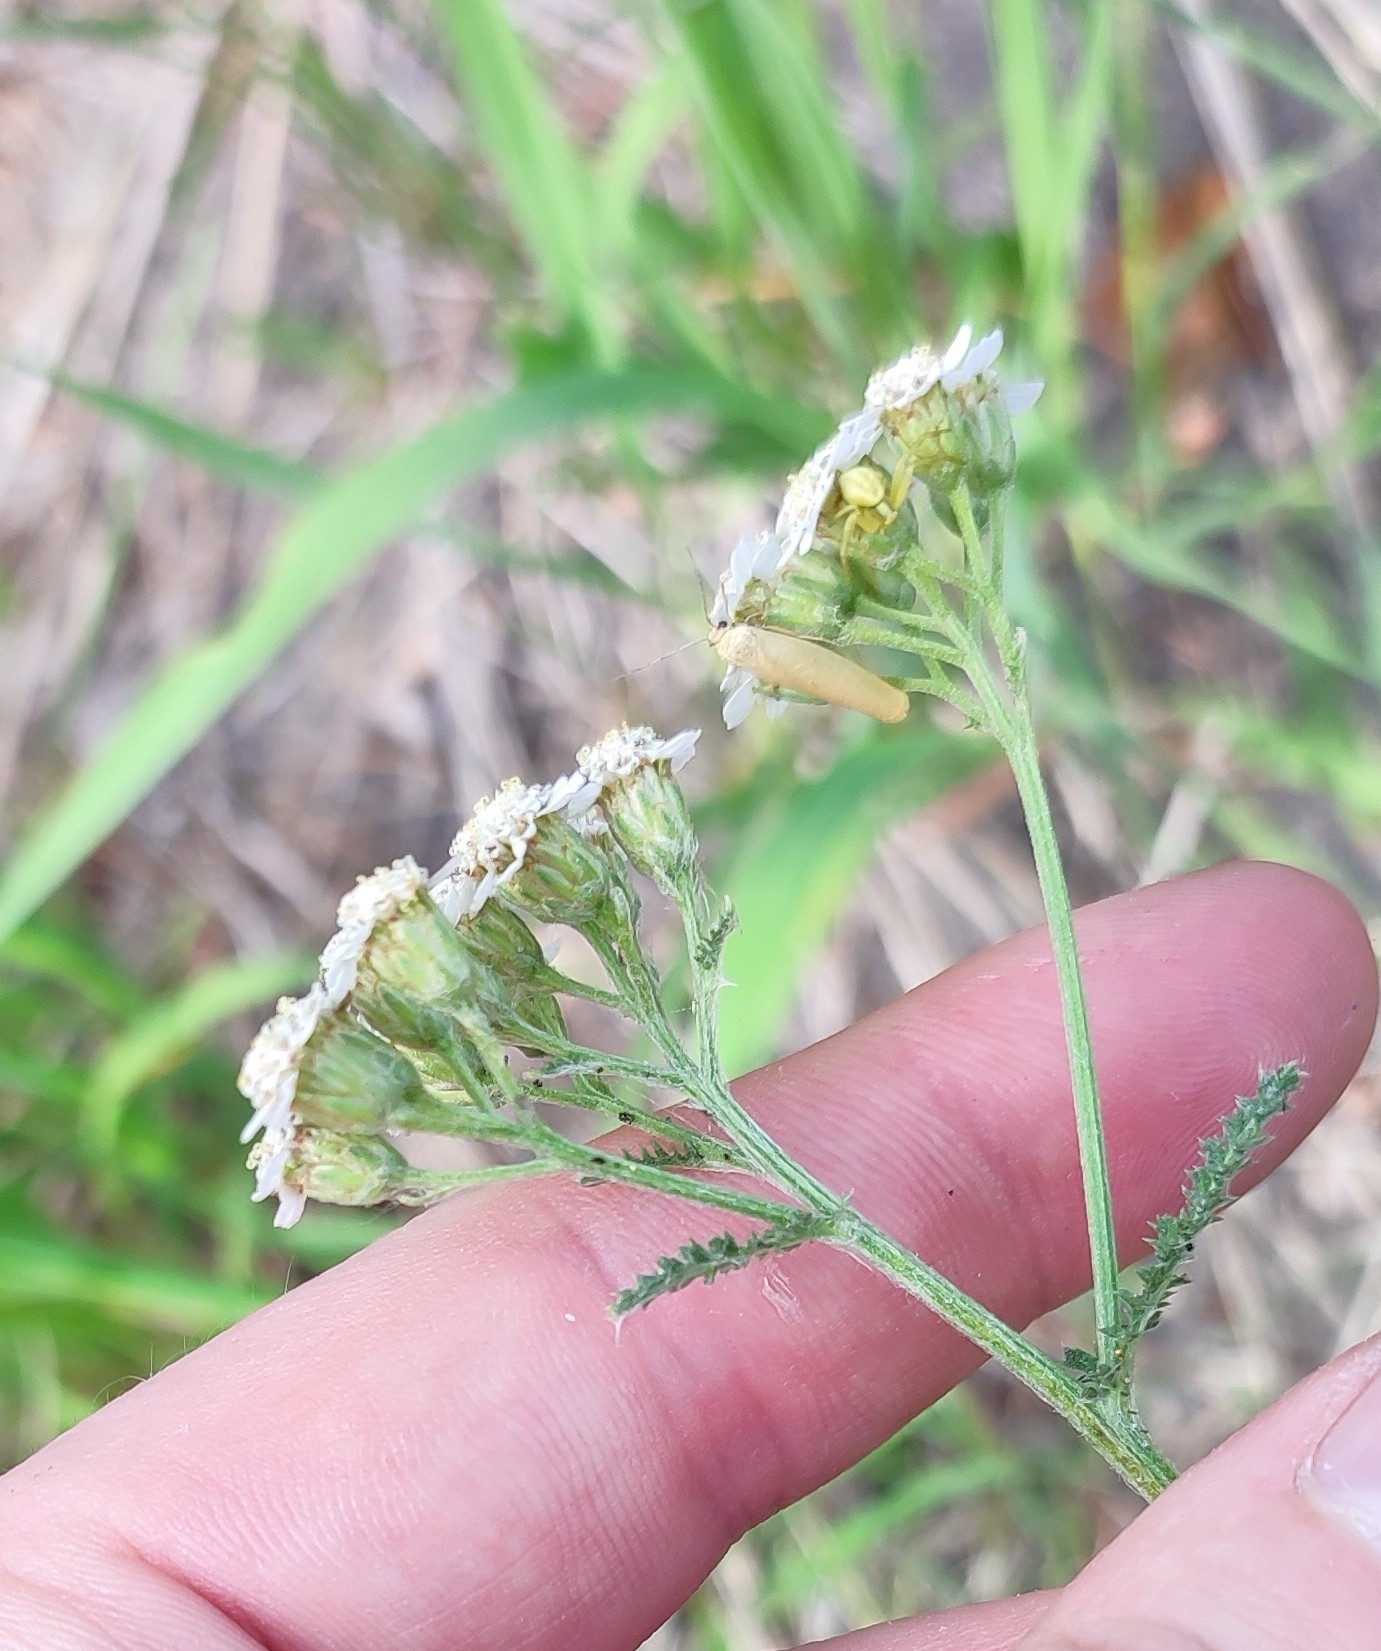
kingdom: Plantae
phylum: Tracheophyta
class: Magnoliopsida
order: Asterales
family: Asteraceae
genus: Achillea
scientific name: Achillea millefolium
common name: Yarrow
